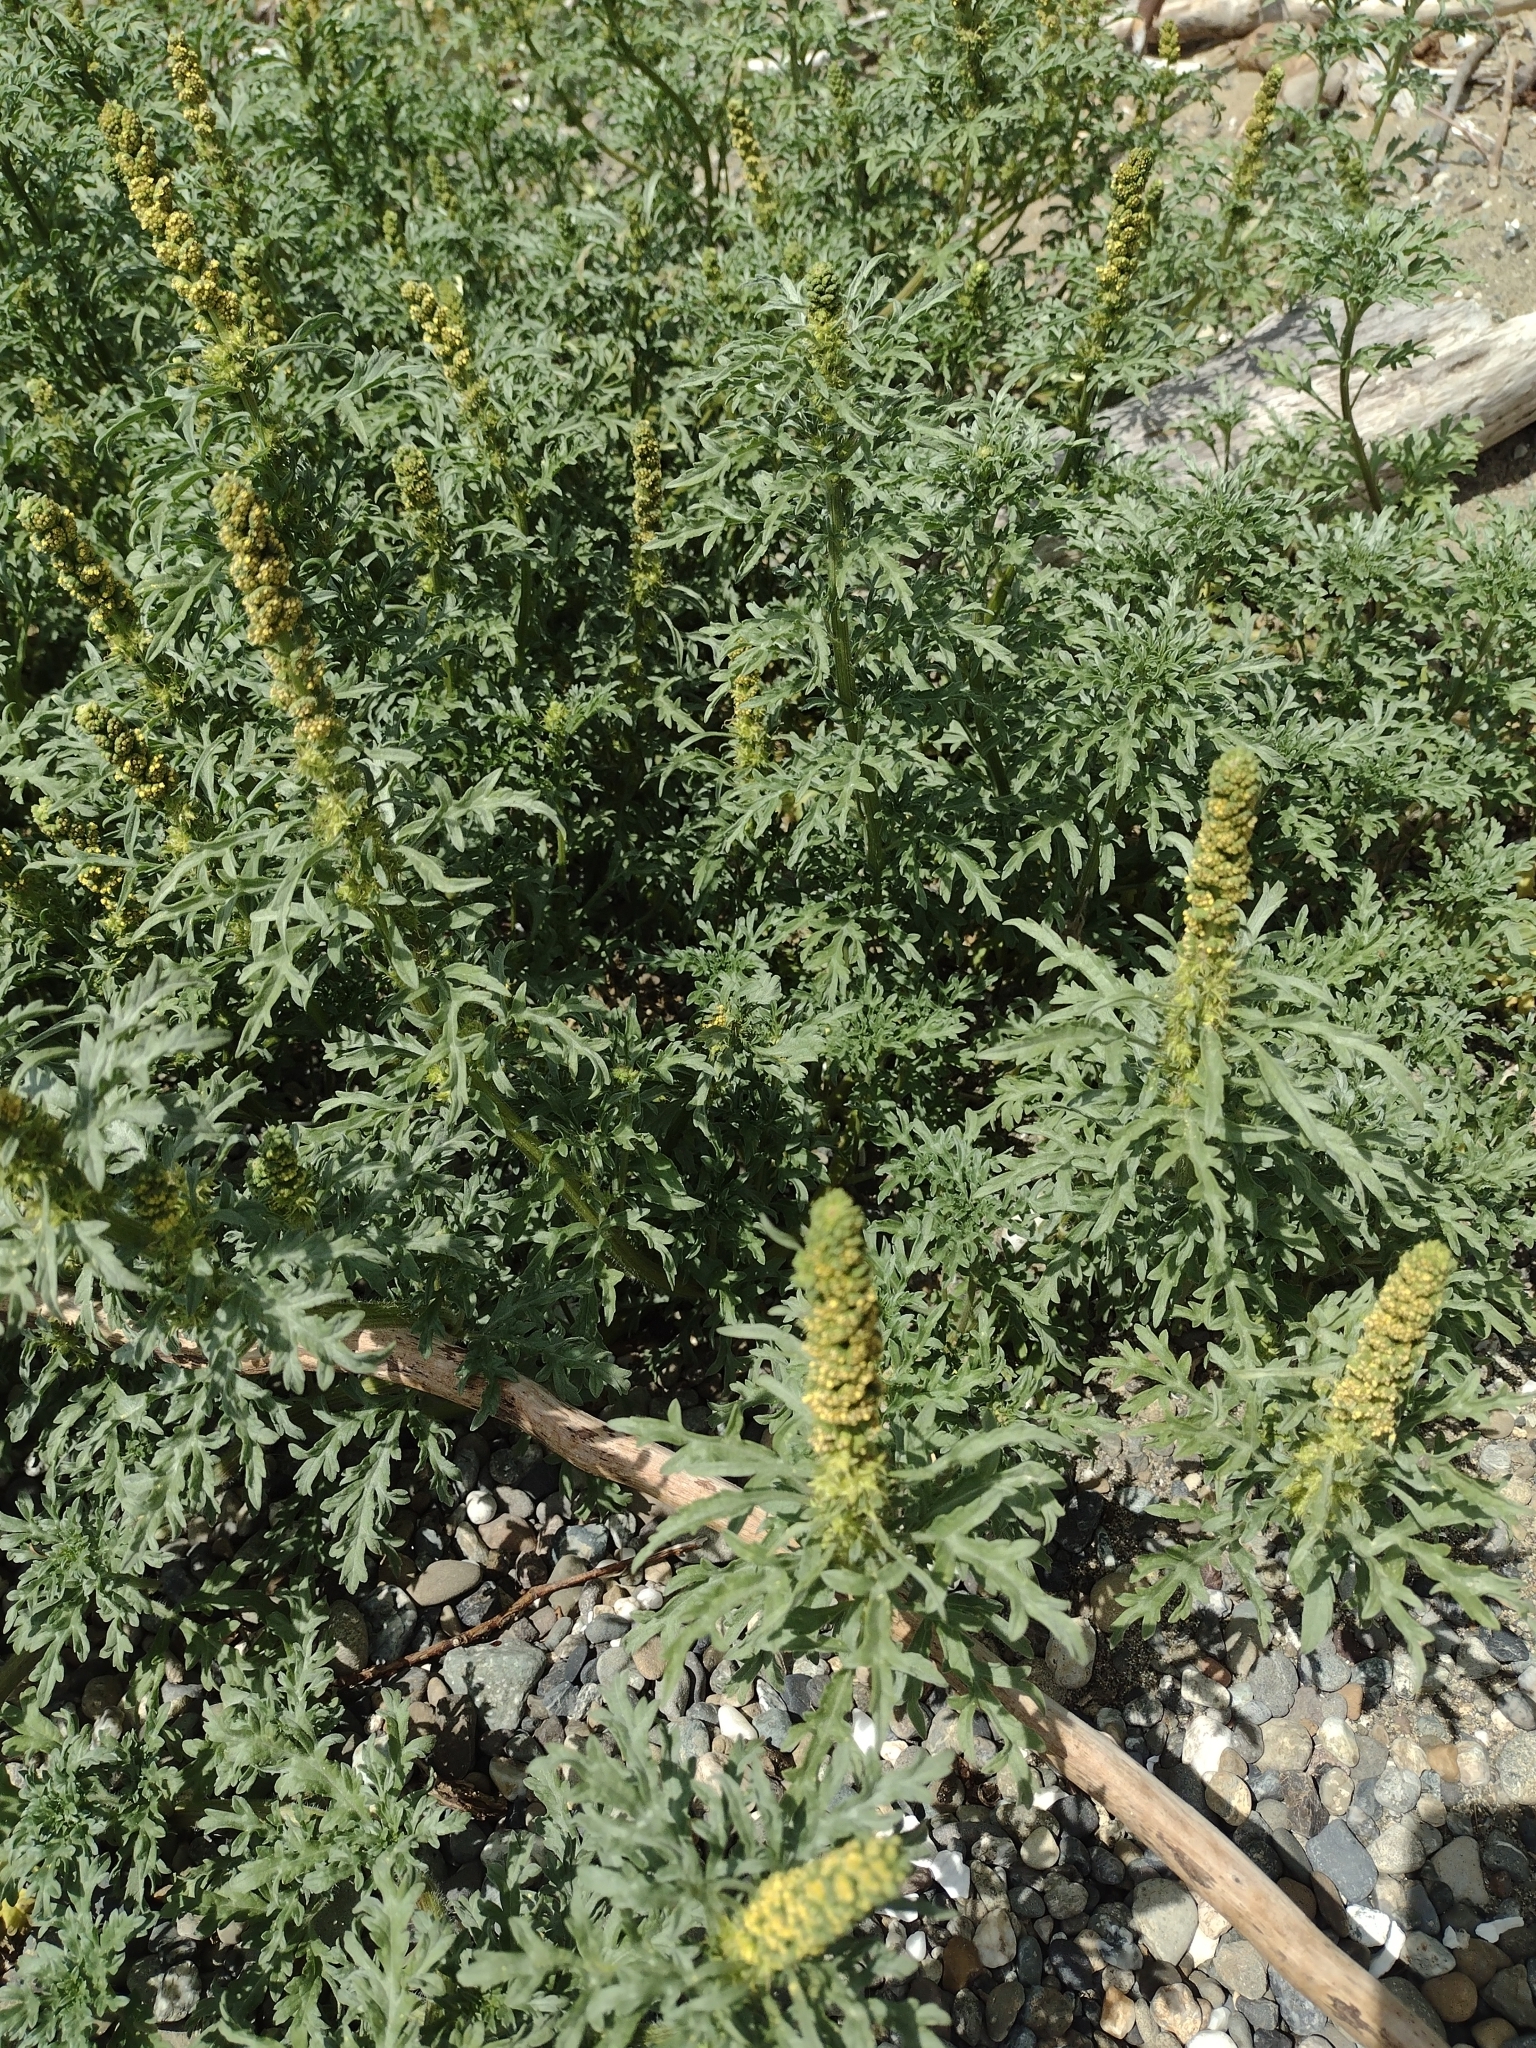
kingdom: Plantae
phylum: Tracheophyta
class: Magnoliopsida
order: Asterales
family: Asteraceae
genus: Ambrosia
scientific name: Ambrosia chamissonis
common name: Beachbur
